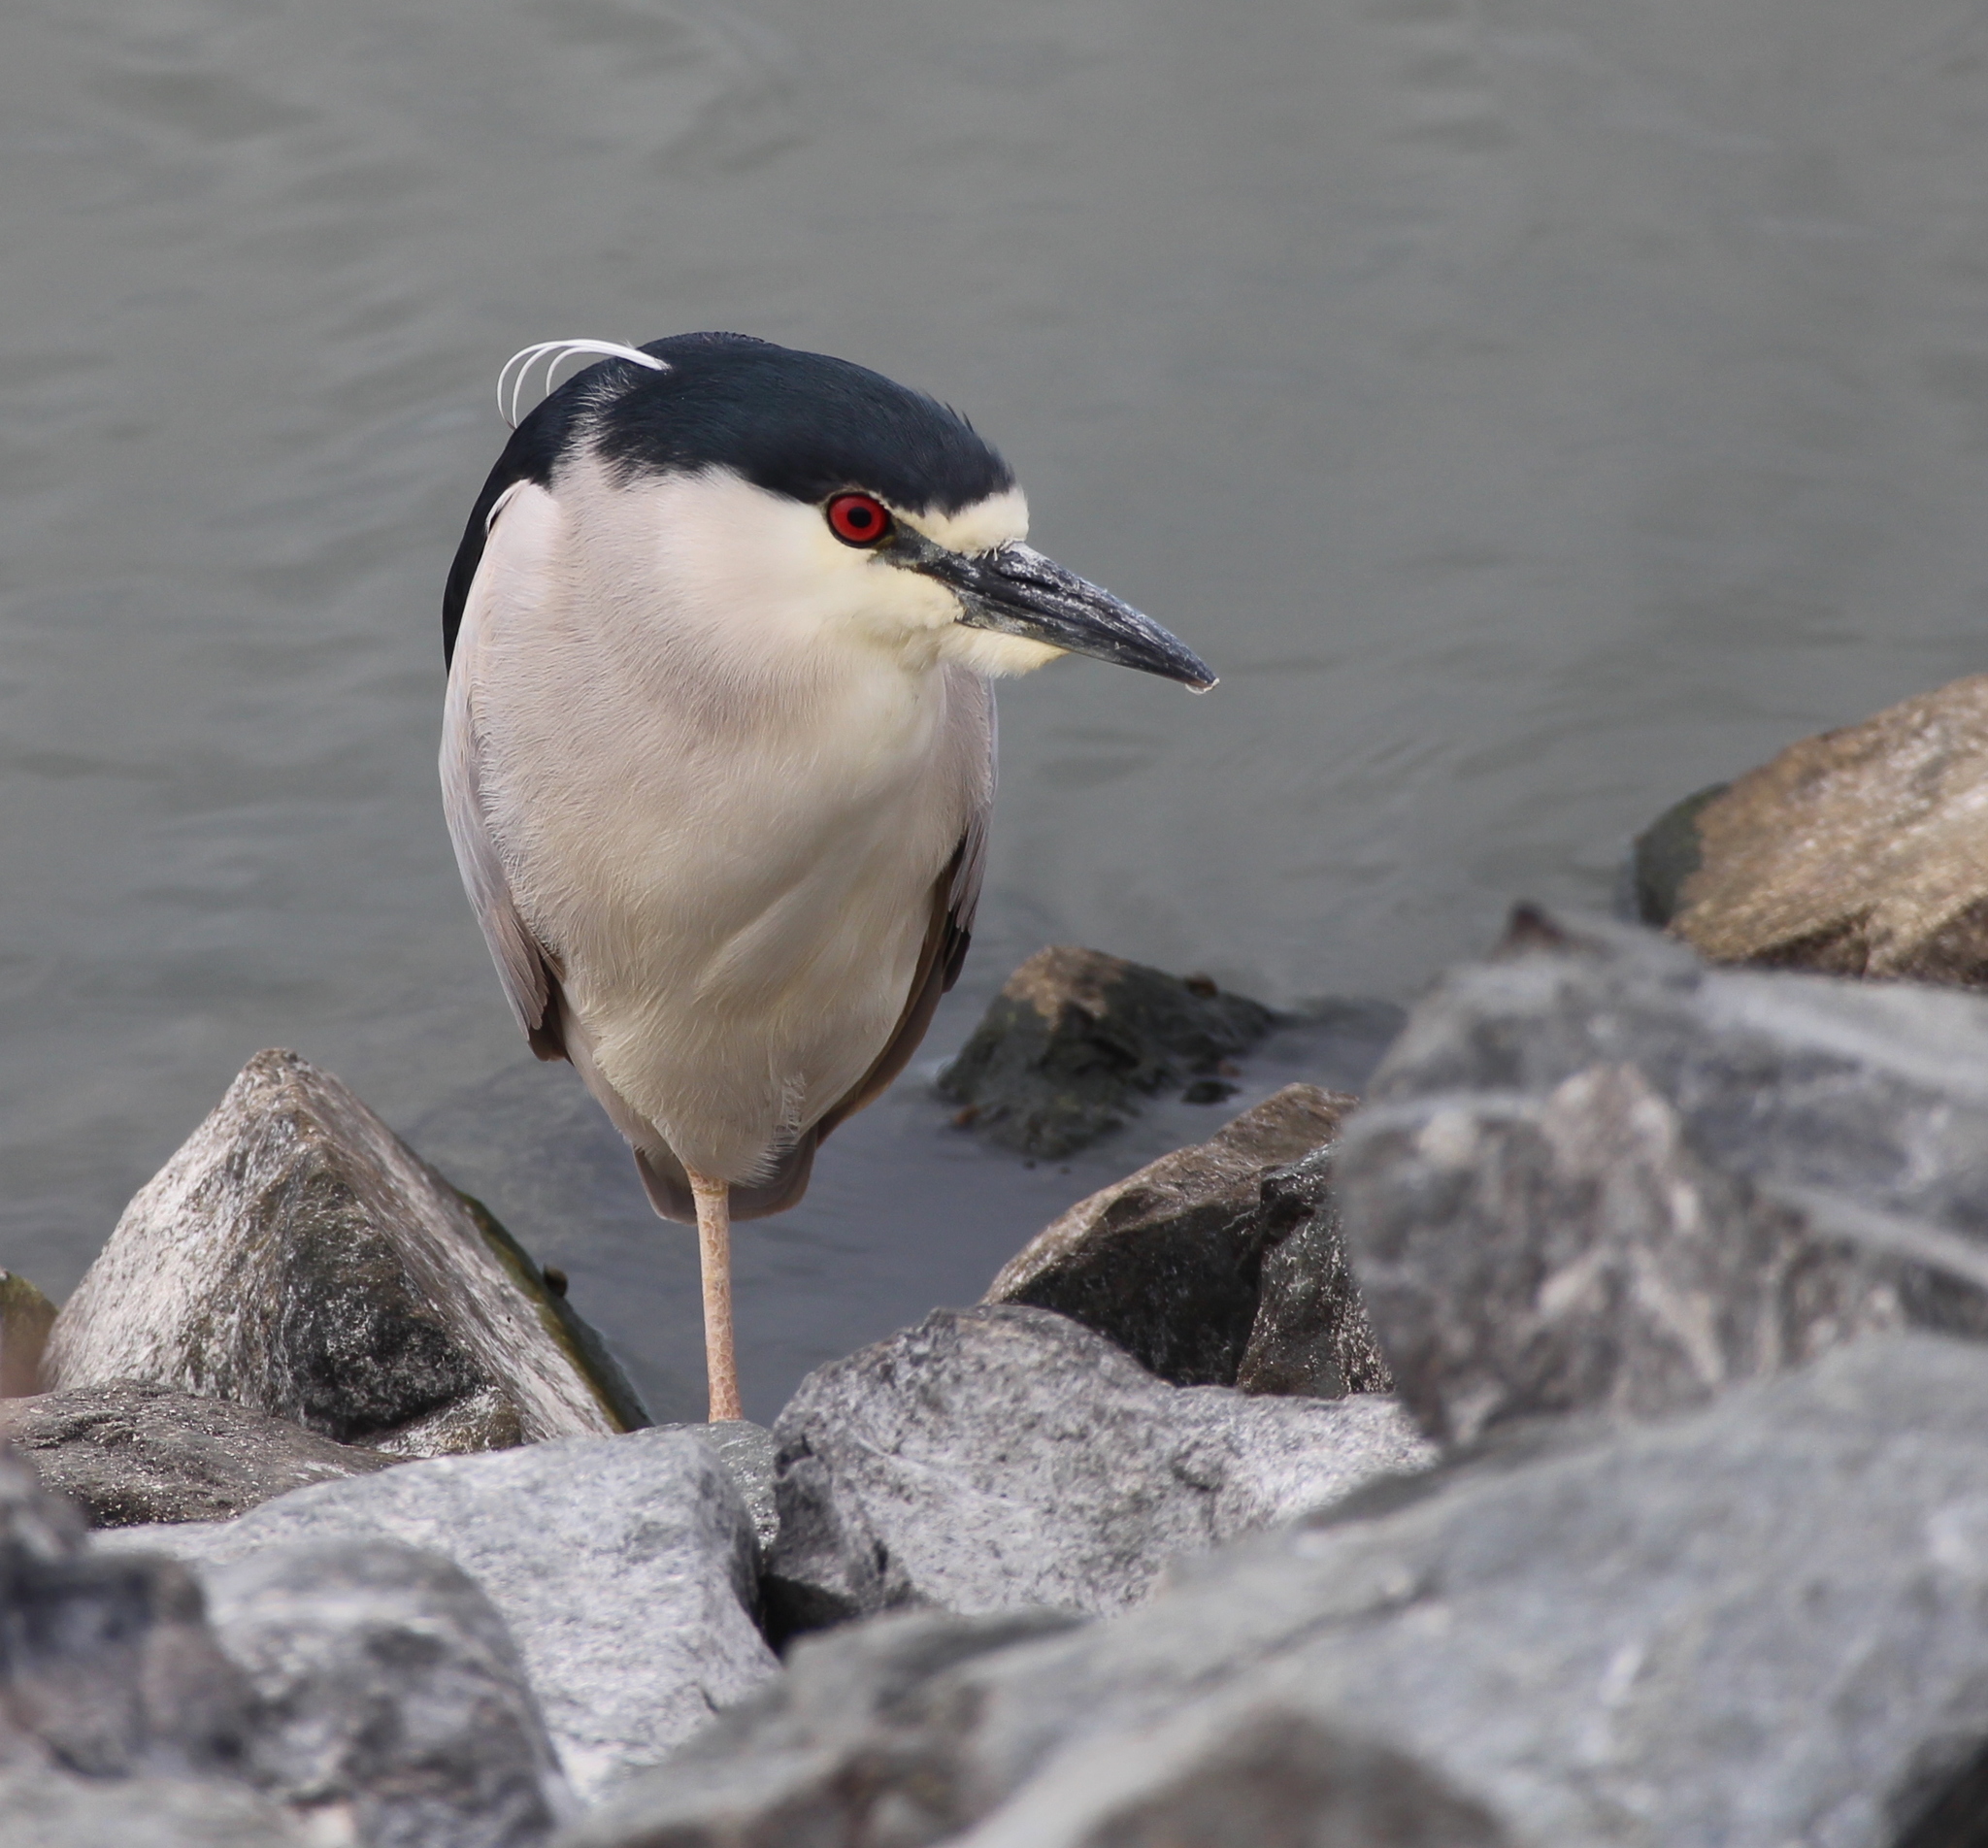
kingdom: Animalia
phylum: Chordata
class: Aves
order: Pelecaniformes
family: Ardeidae
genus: Nycticorax
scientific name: Nycticorax nycticorax
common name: Black-crowned night heron
